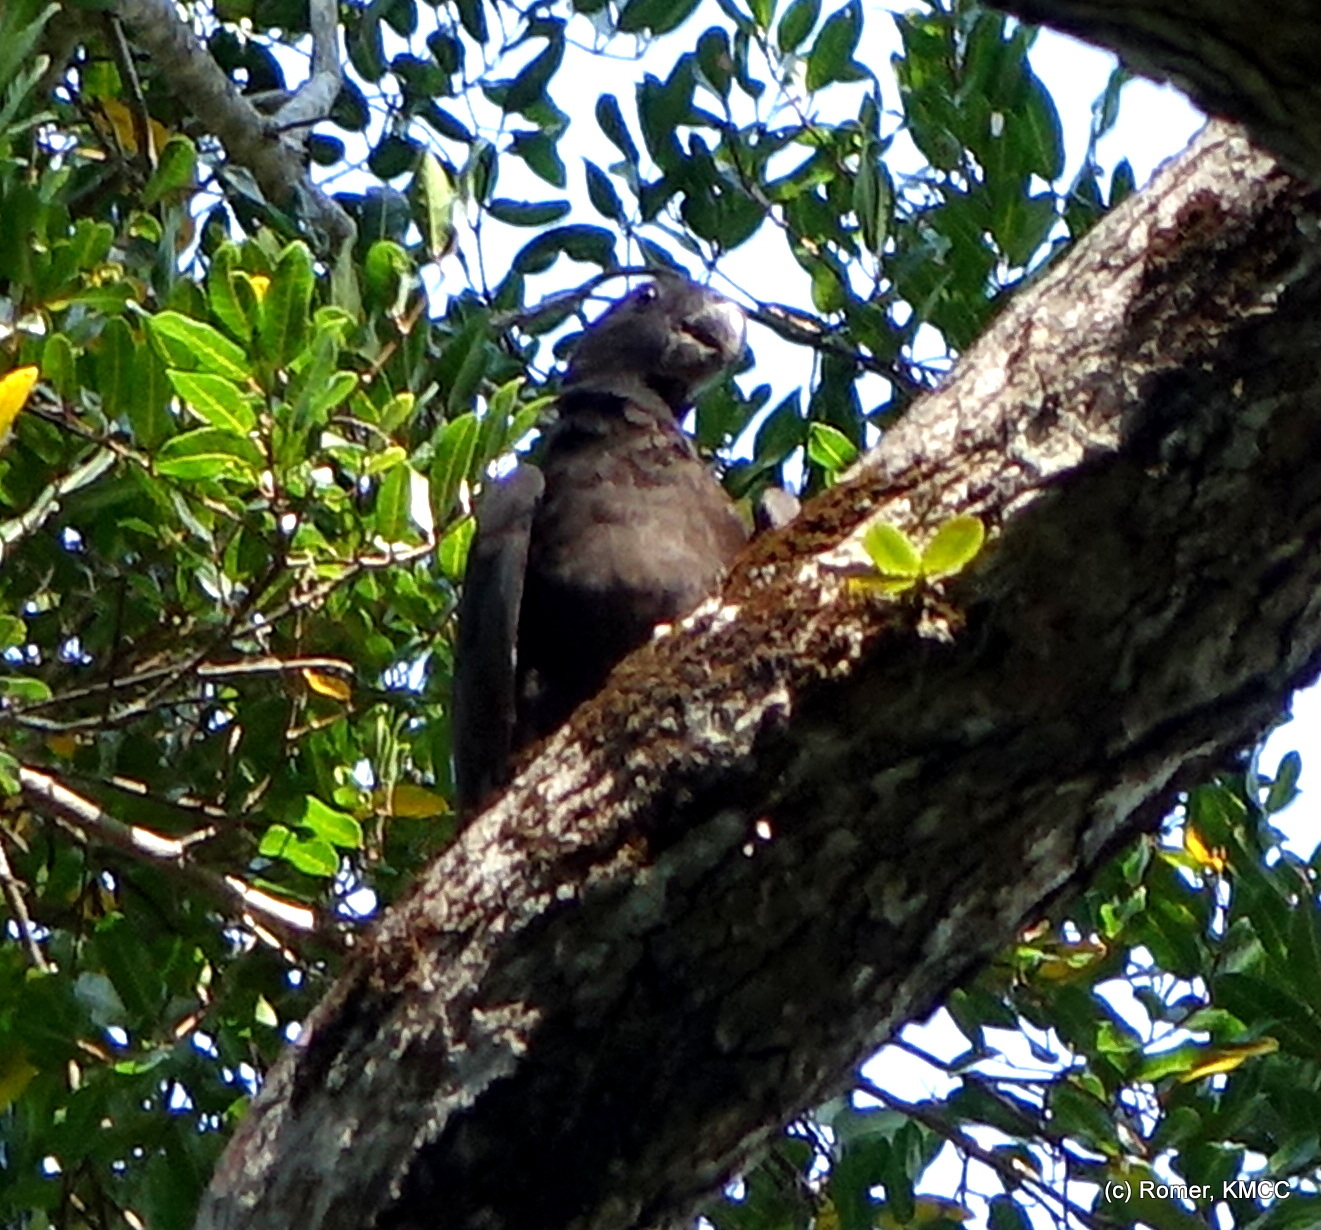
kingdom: Animalia
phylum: Chordata
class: Aves
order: Psittaciformes
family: Psittacidae
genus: Coracopsis
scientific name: Coracopsis
